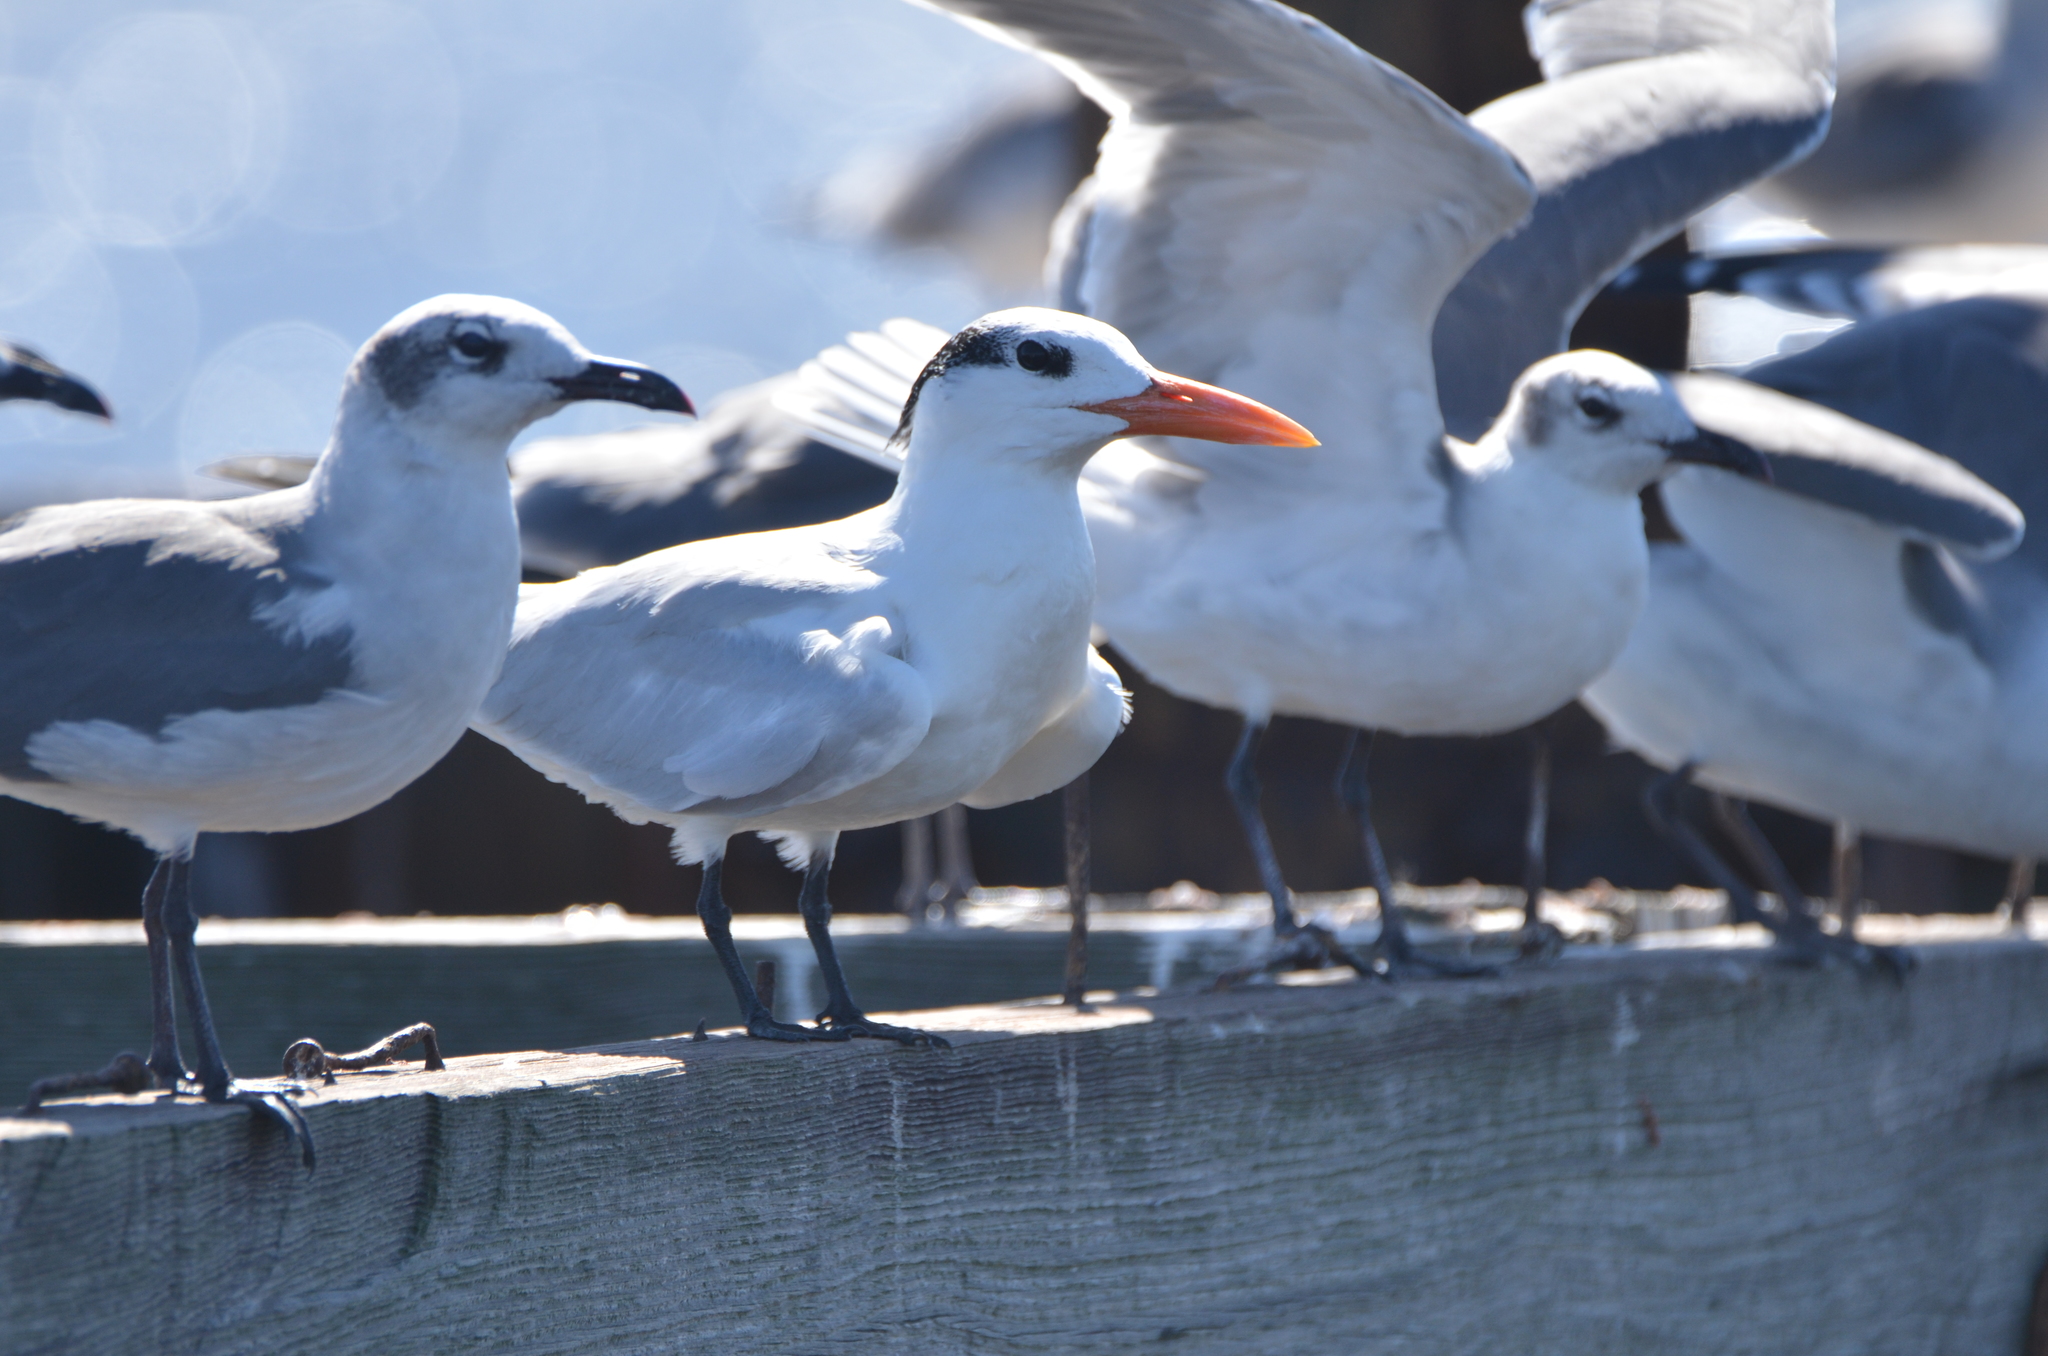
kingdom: Animalia
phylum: Chordata
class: Aves
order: Charadriiformes
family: Laridae
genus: Thalasseus
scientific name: Thalasseus maximus
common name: Royal tern
